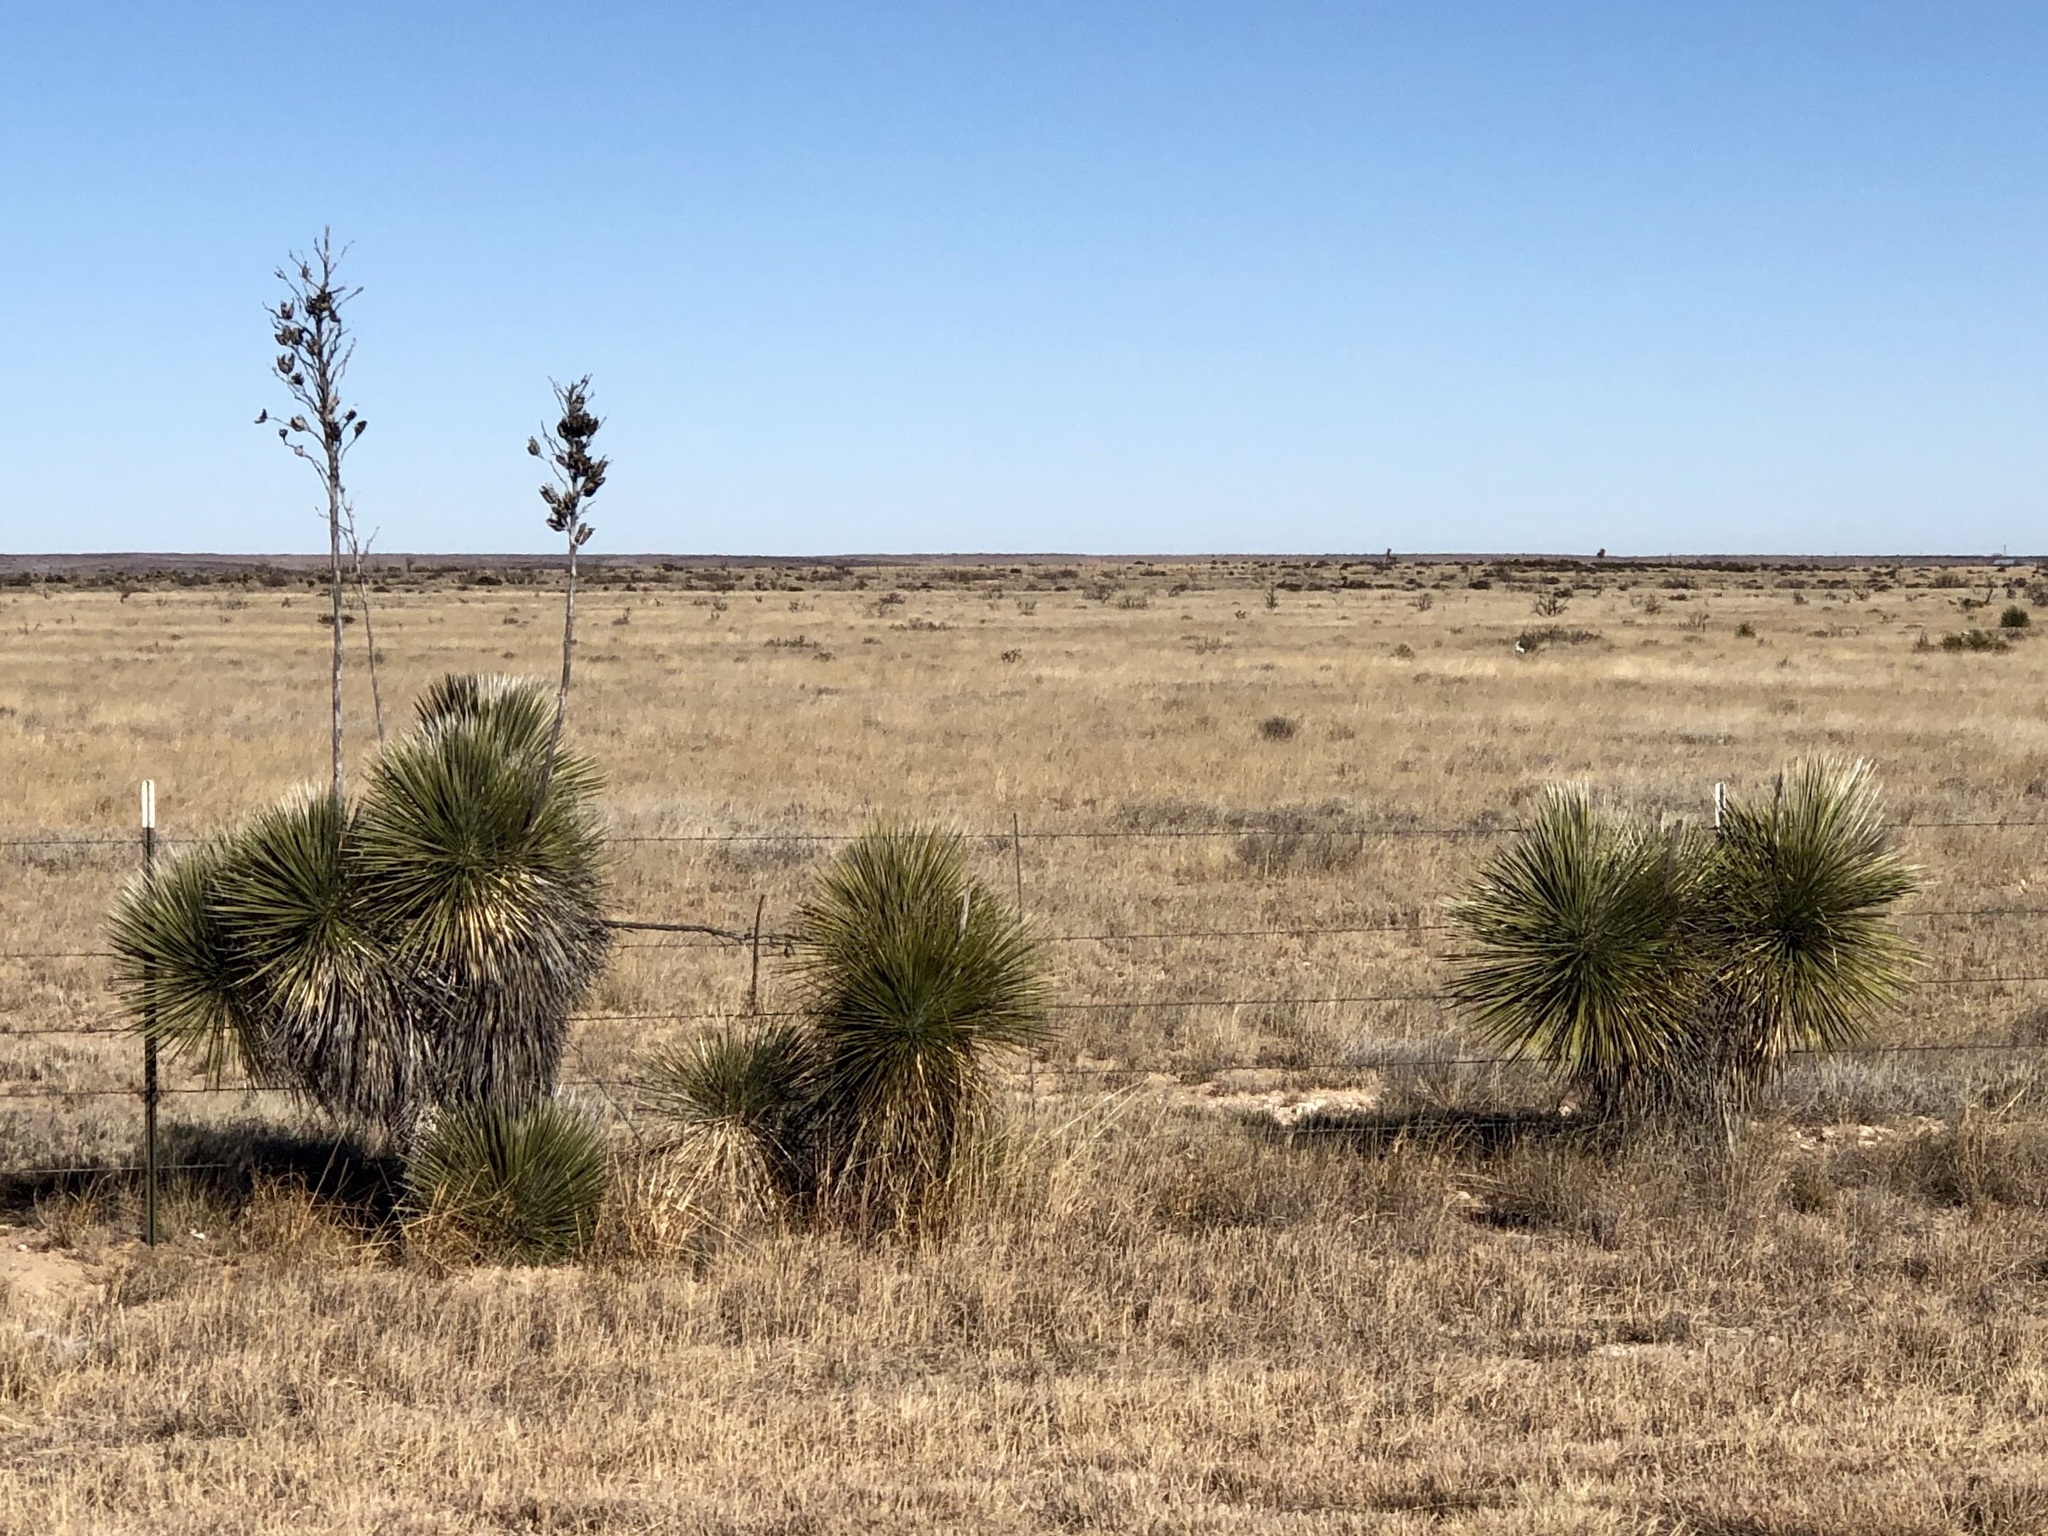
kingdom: Plantae
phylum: Tracheophyta
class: Liliopsida
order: Asparagales
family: Asparagaceae
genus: Yucca
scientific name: Yucca elata
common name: Palmella
